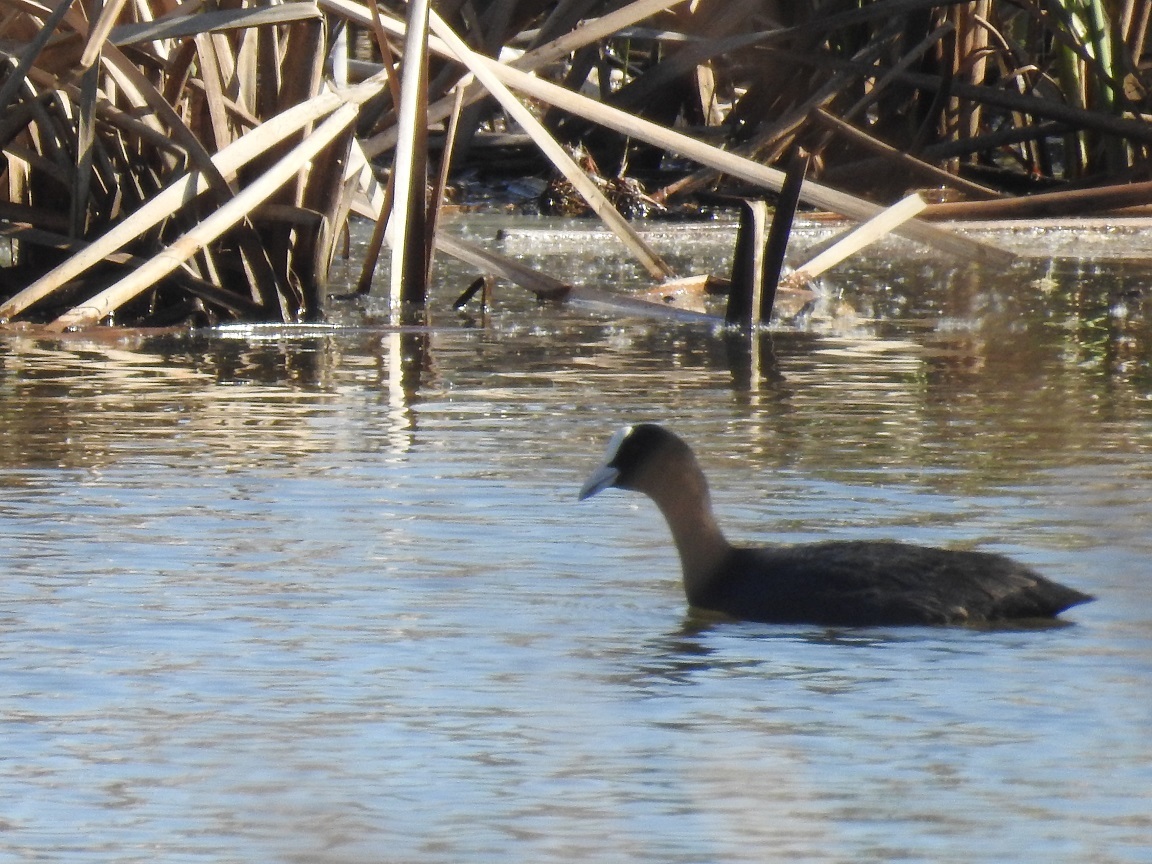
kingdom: Animalia
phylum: Chordata
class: Aves
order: Gruiformes
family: Rallidae
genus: Fulica
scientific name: Fulica atra
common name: Eurasian coot
